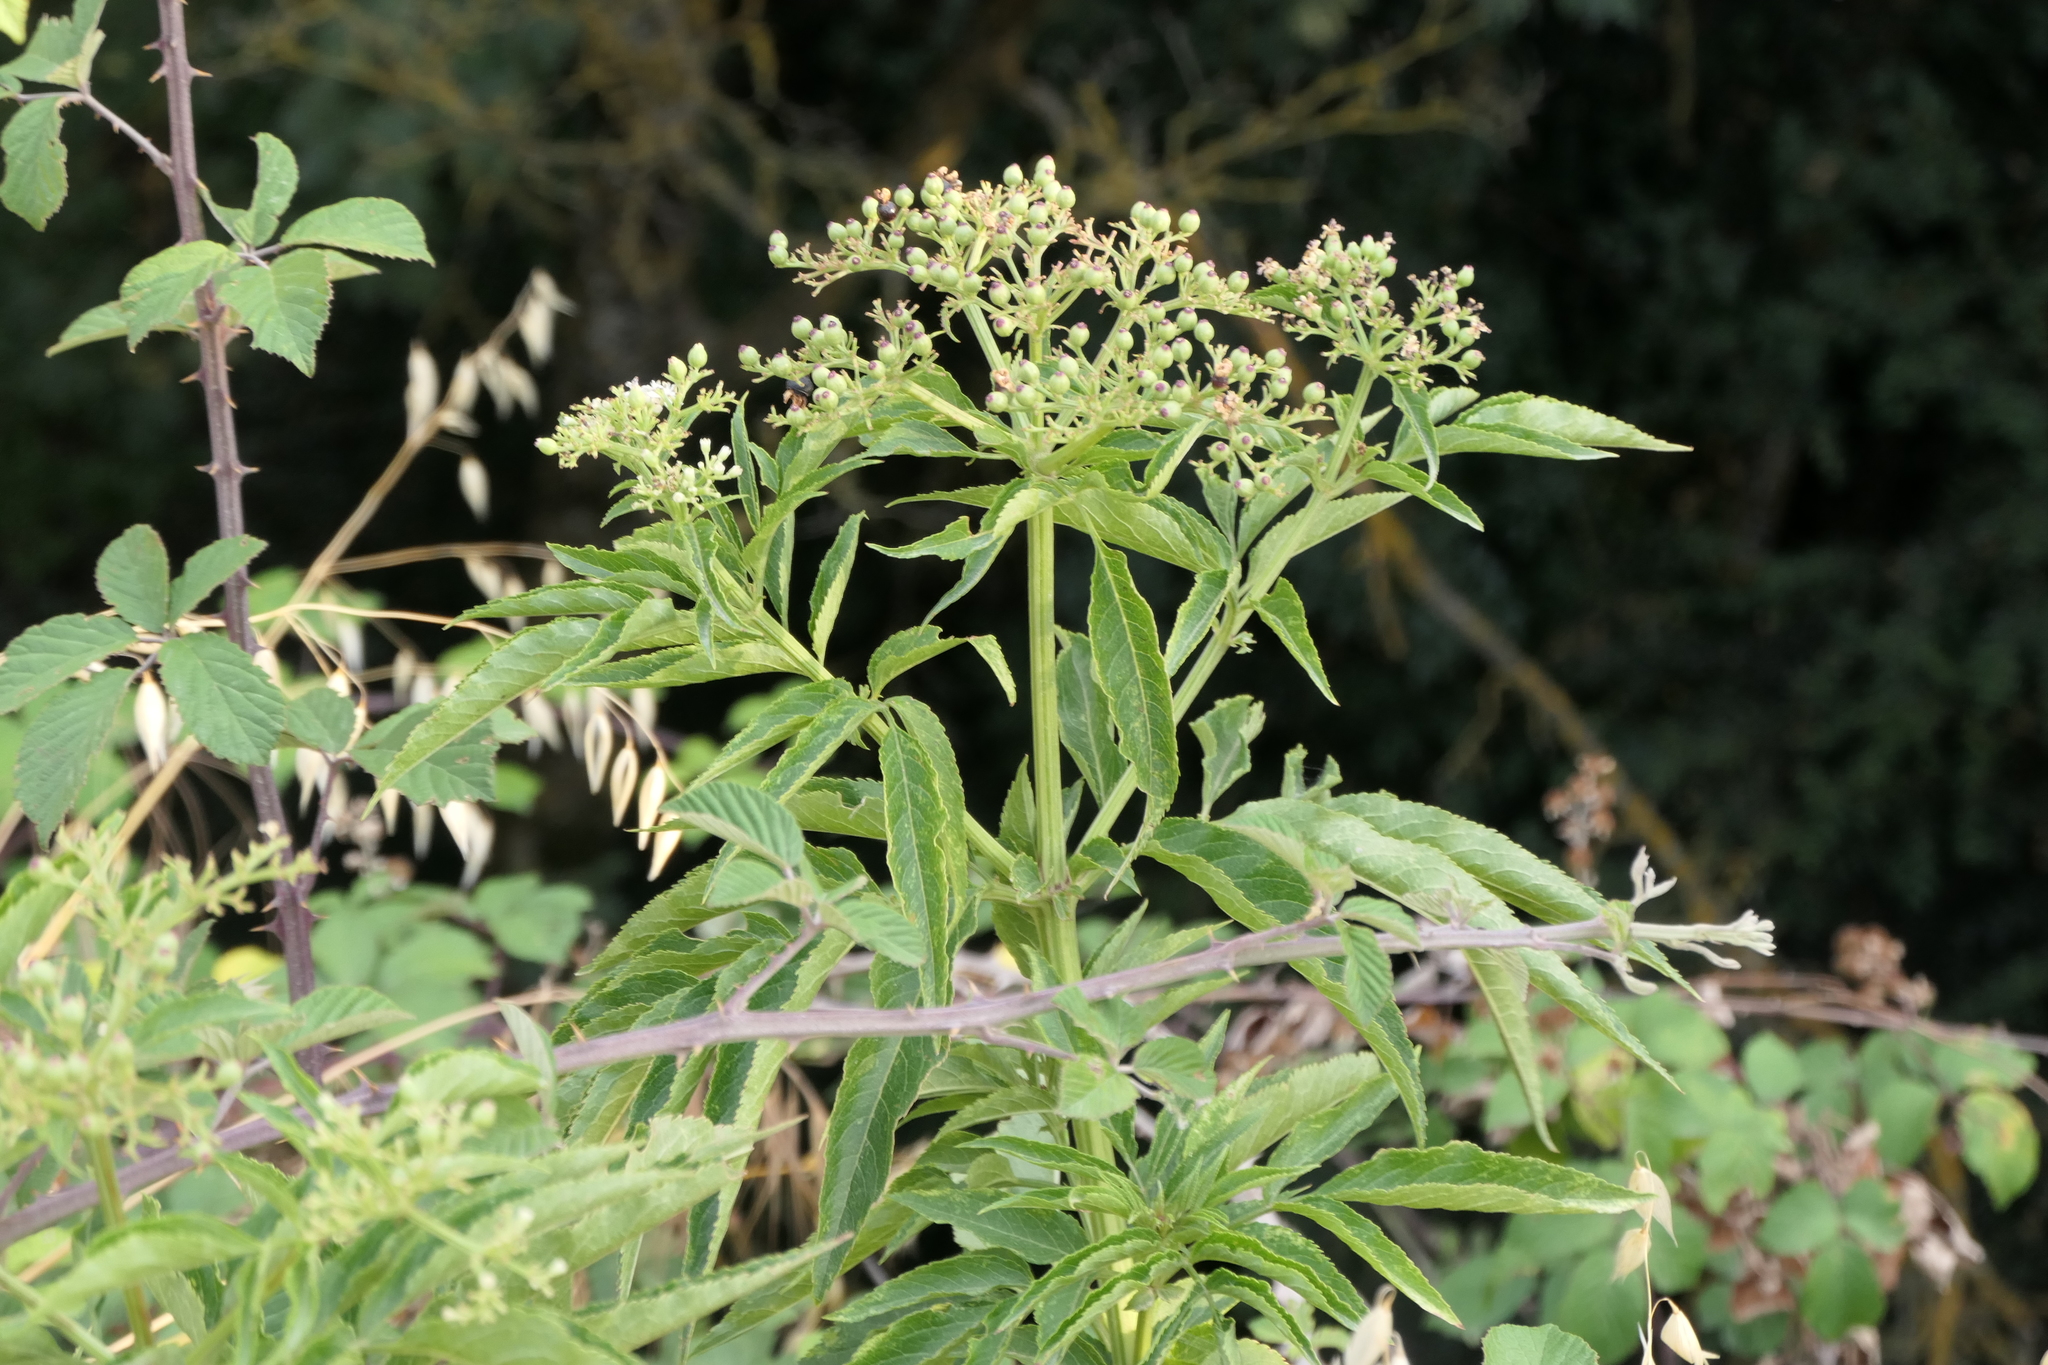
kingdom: Plantae
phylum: Tracheophyta
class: Magnoliopsida
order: Dipsacales
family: Viburnaceae
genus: Sambucus
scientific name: Sambucus ebulus
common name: Dwarf elder
